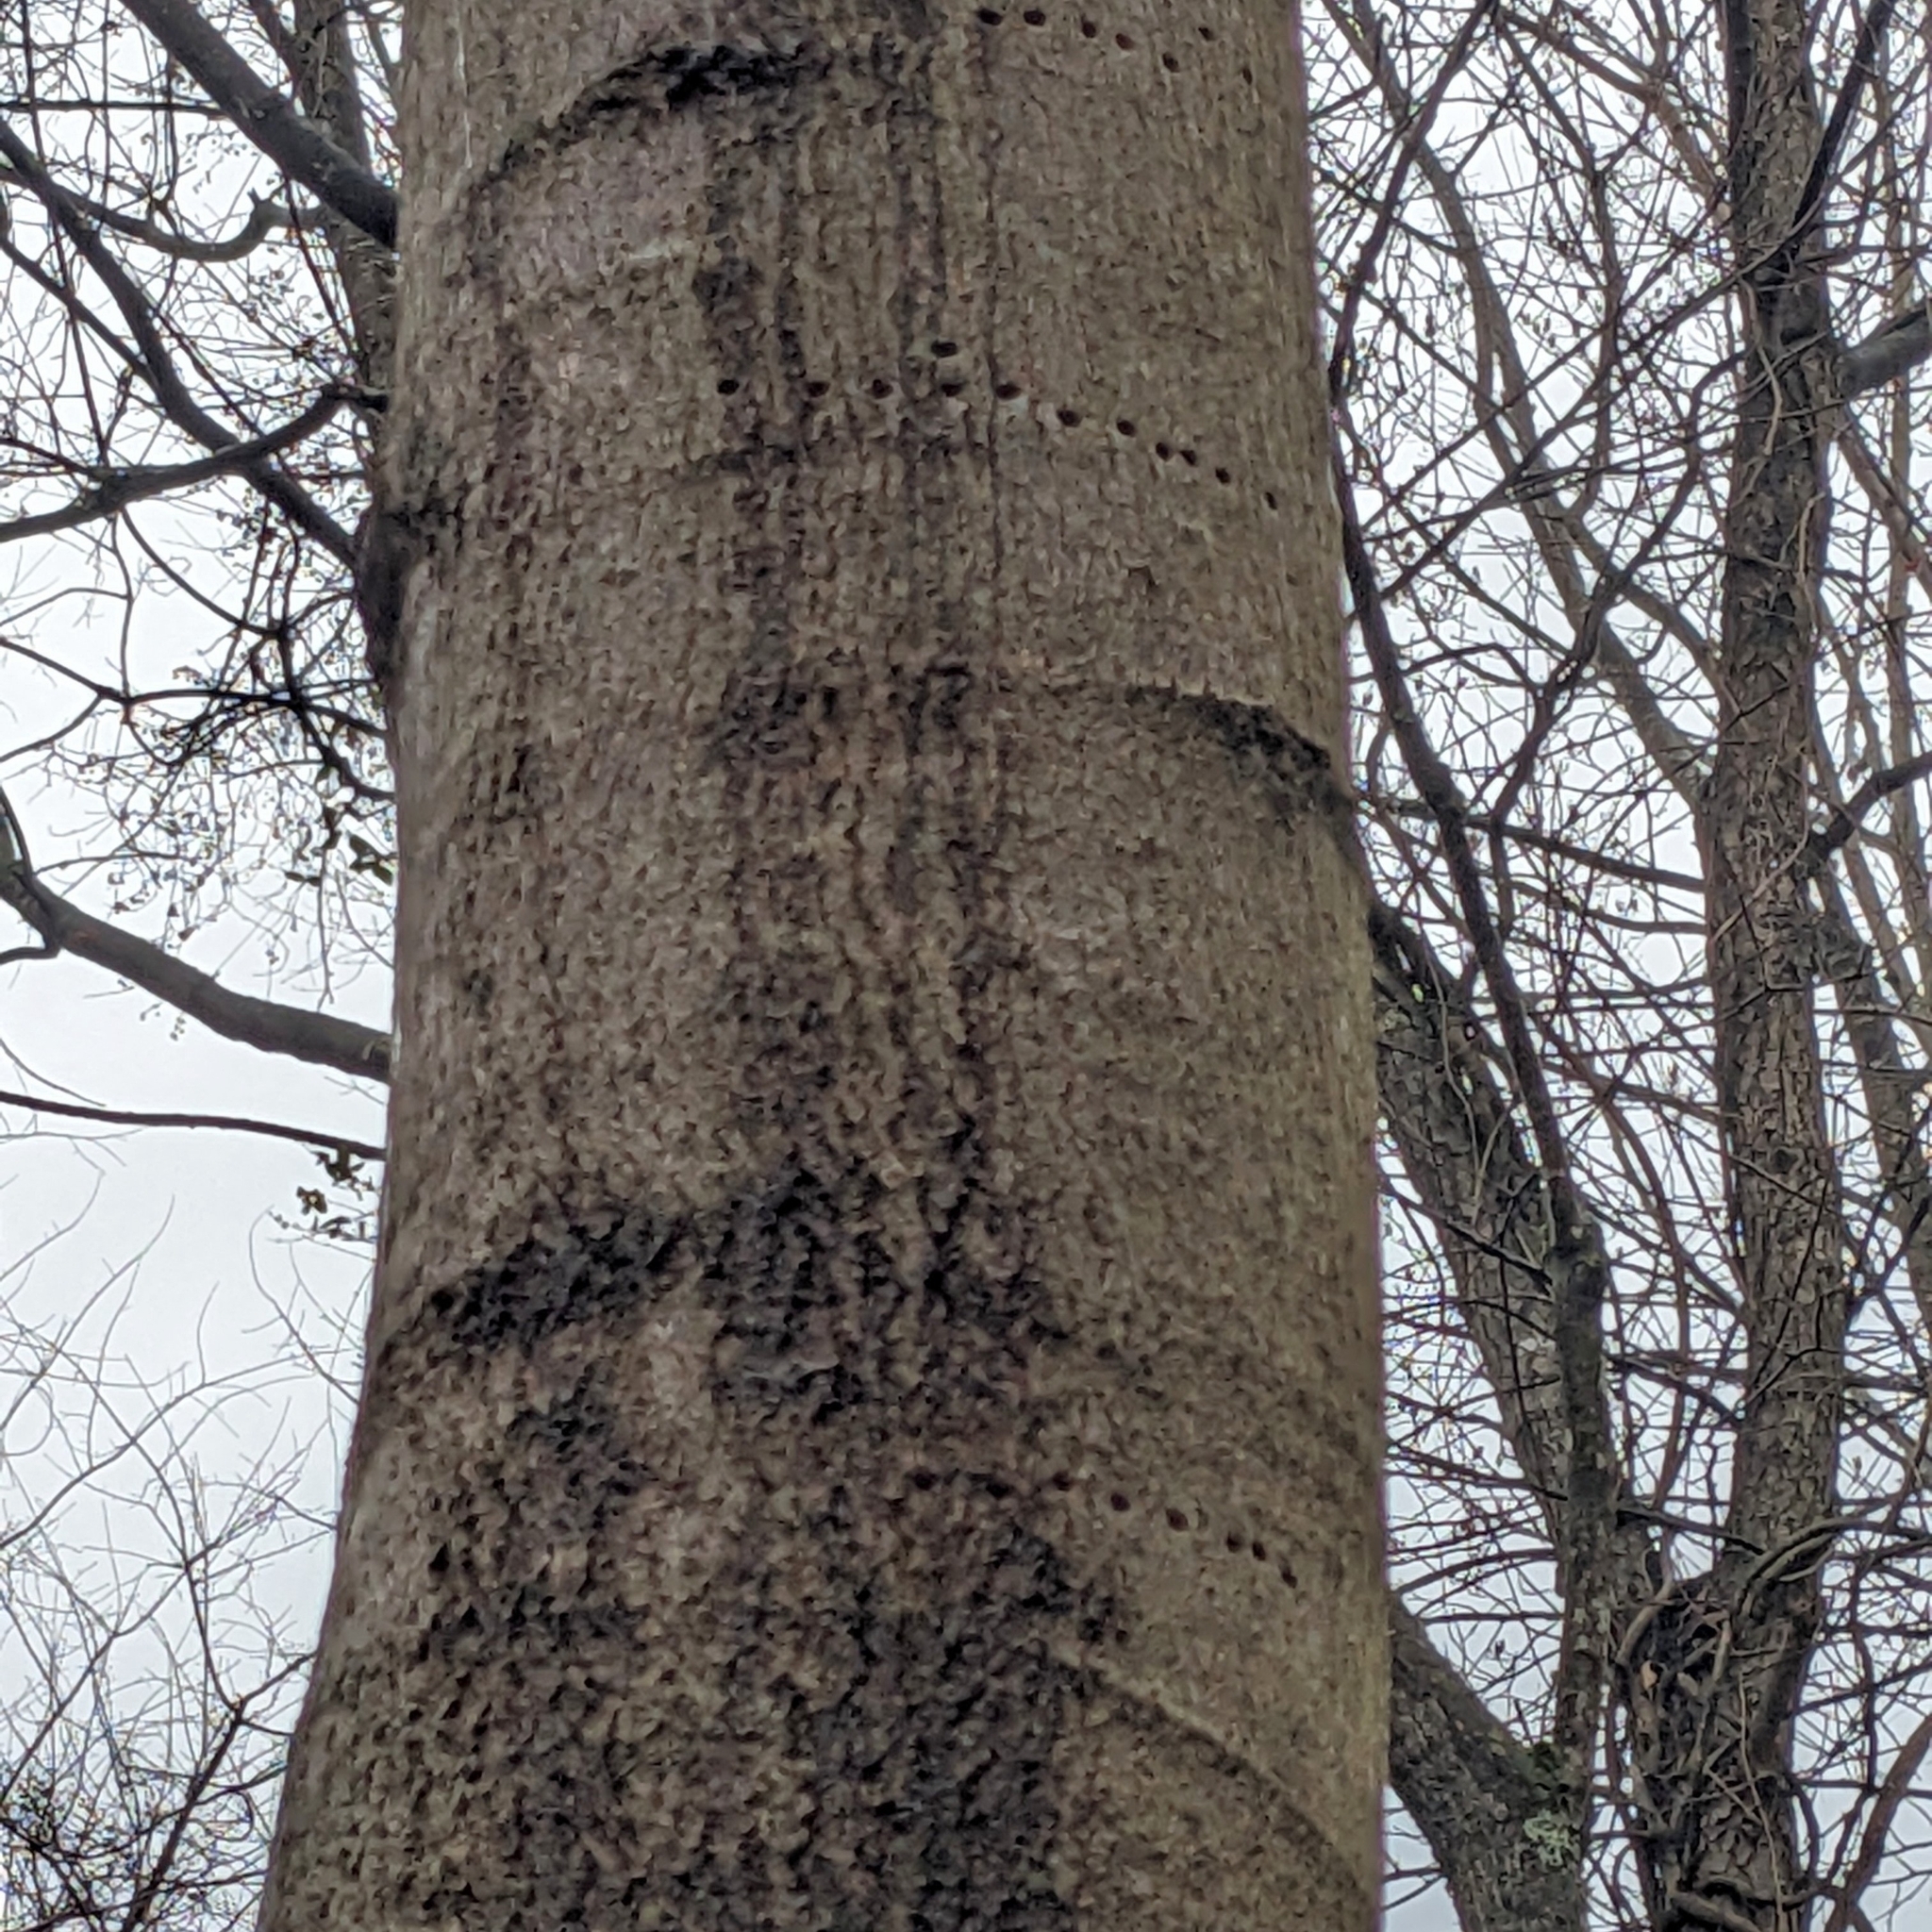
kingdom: Animalia
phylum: Chordata
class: Aves
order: Piciformes
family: Picidae
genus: Sphyrapicus
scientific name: Sphyrapicus varius
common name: Yellow-bellied sapsucker
